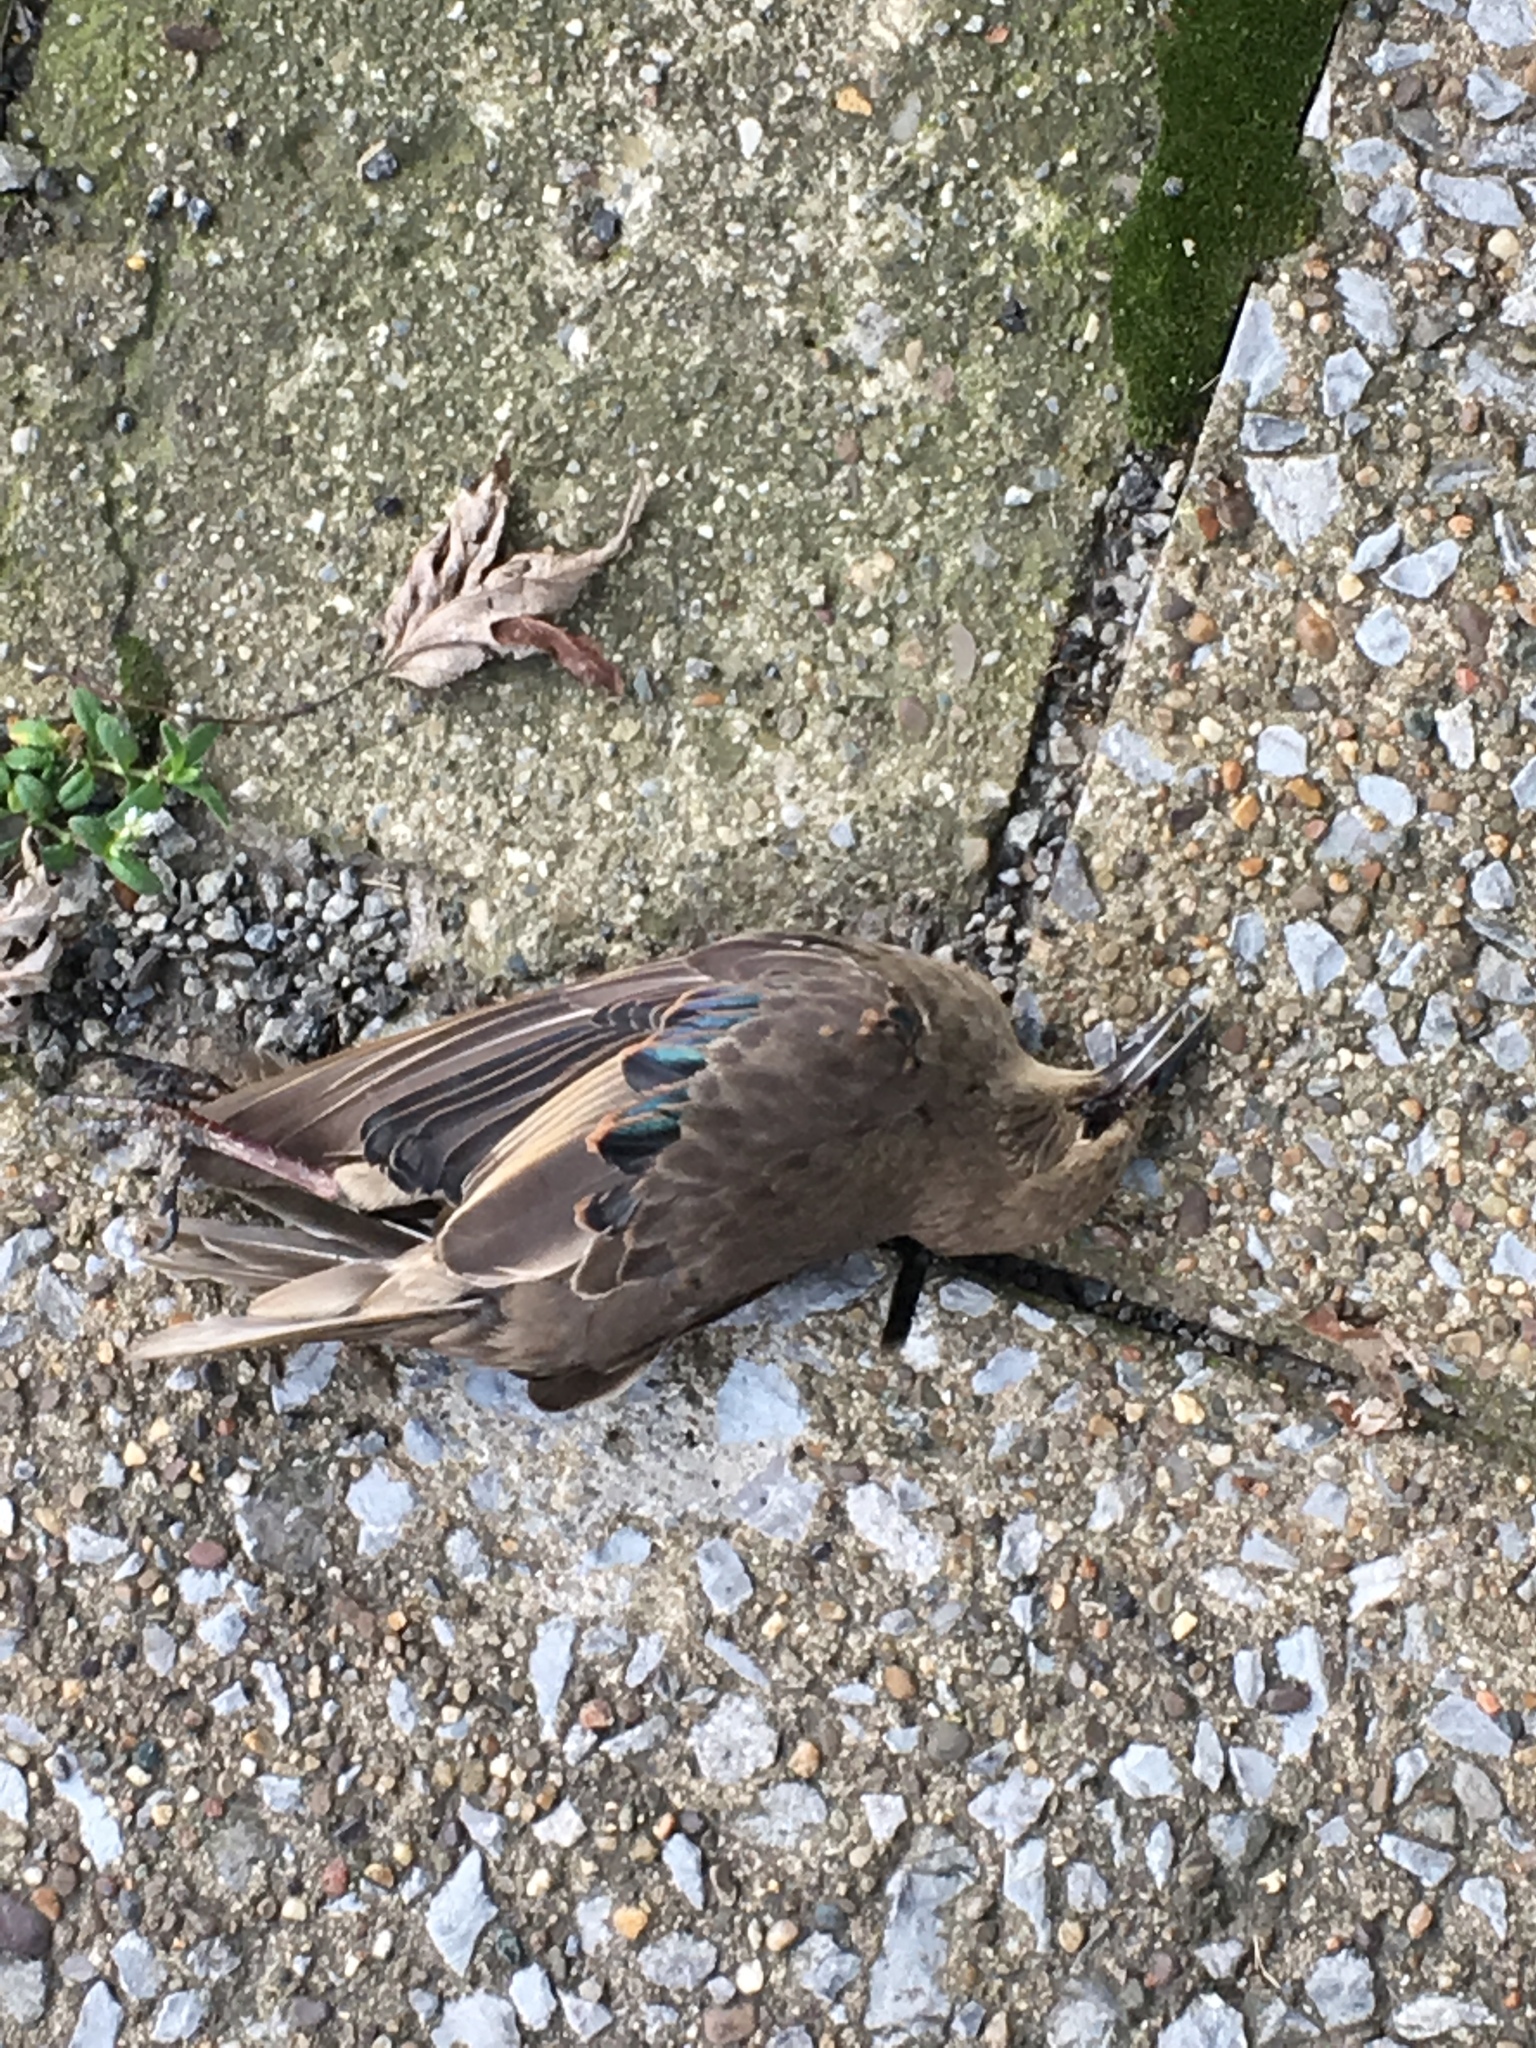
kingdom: Animalia
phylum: Chordata
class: Aves
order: Passeriformes
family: Sturnidae
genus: Sturnus
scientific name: Sturnus vulgaris
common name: Common starling
